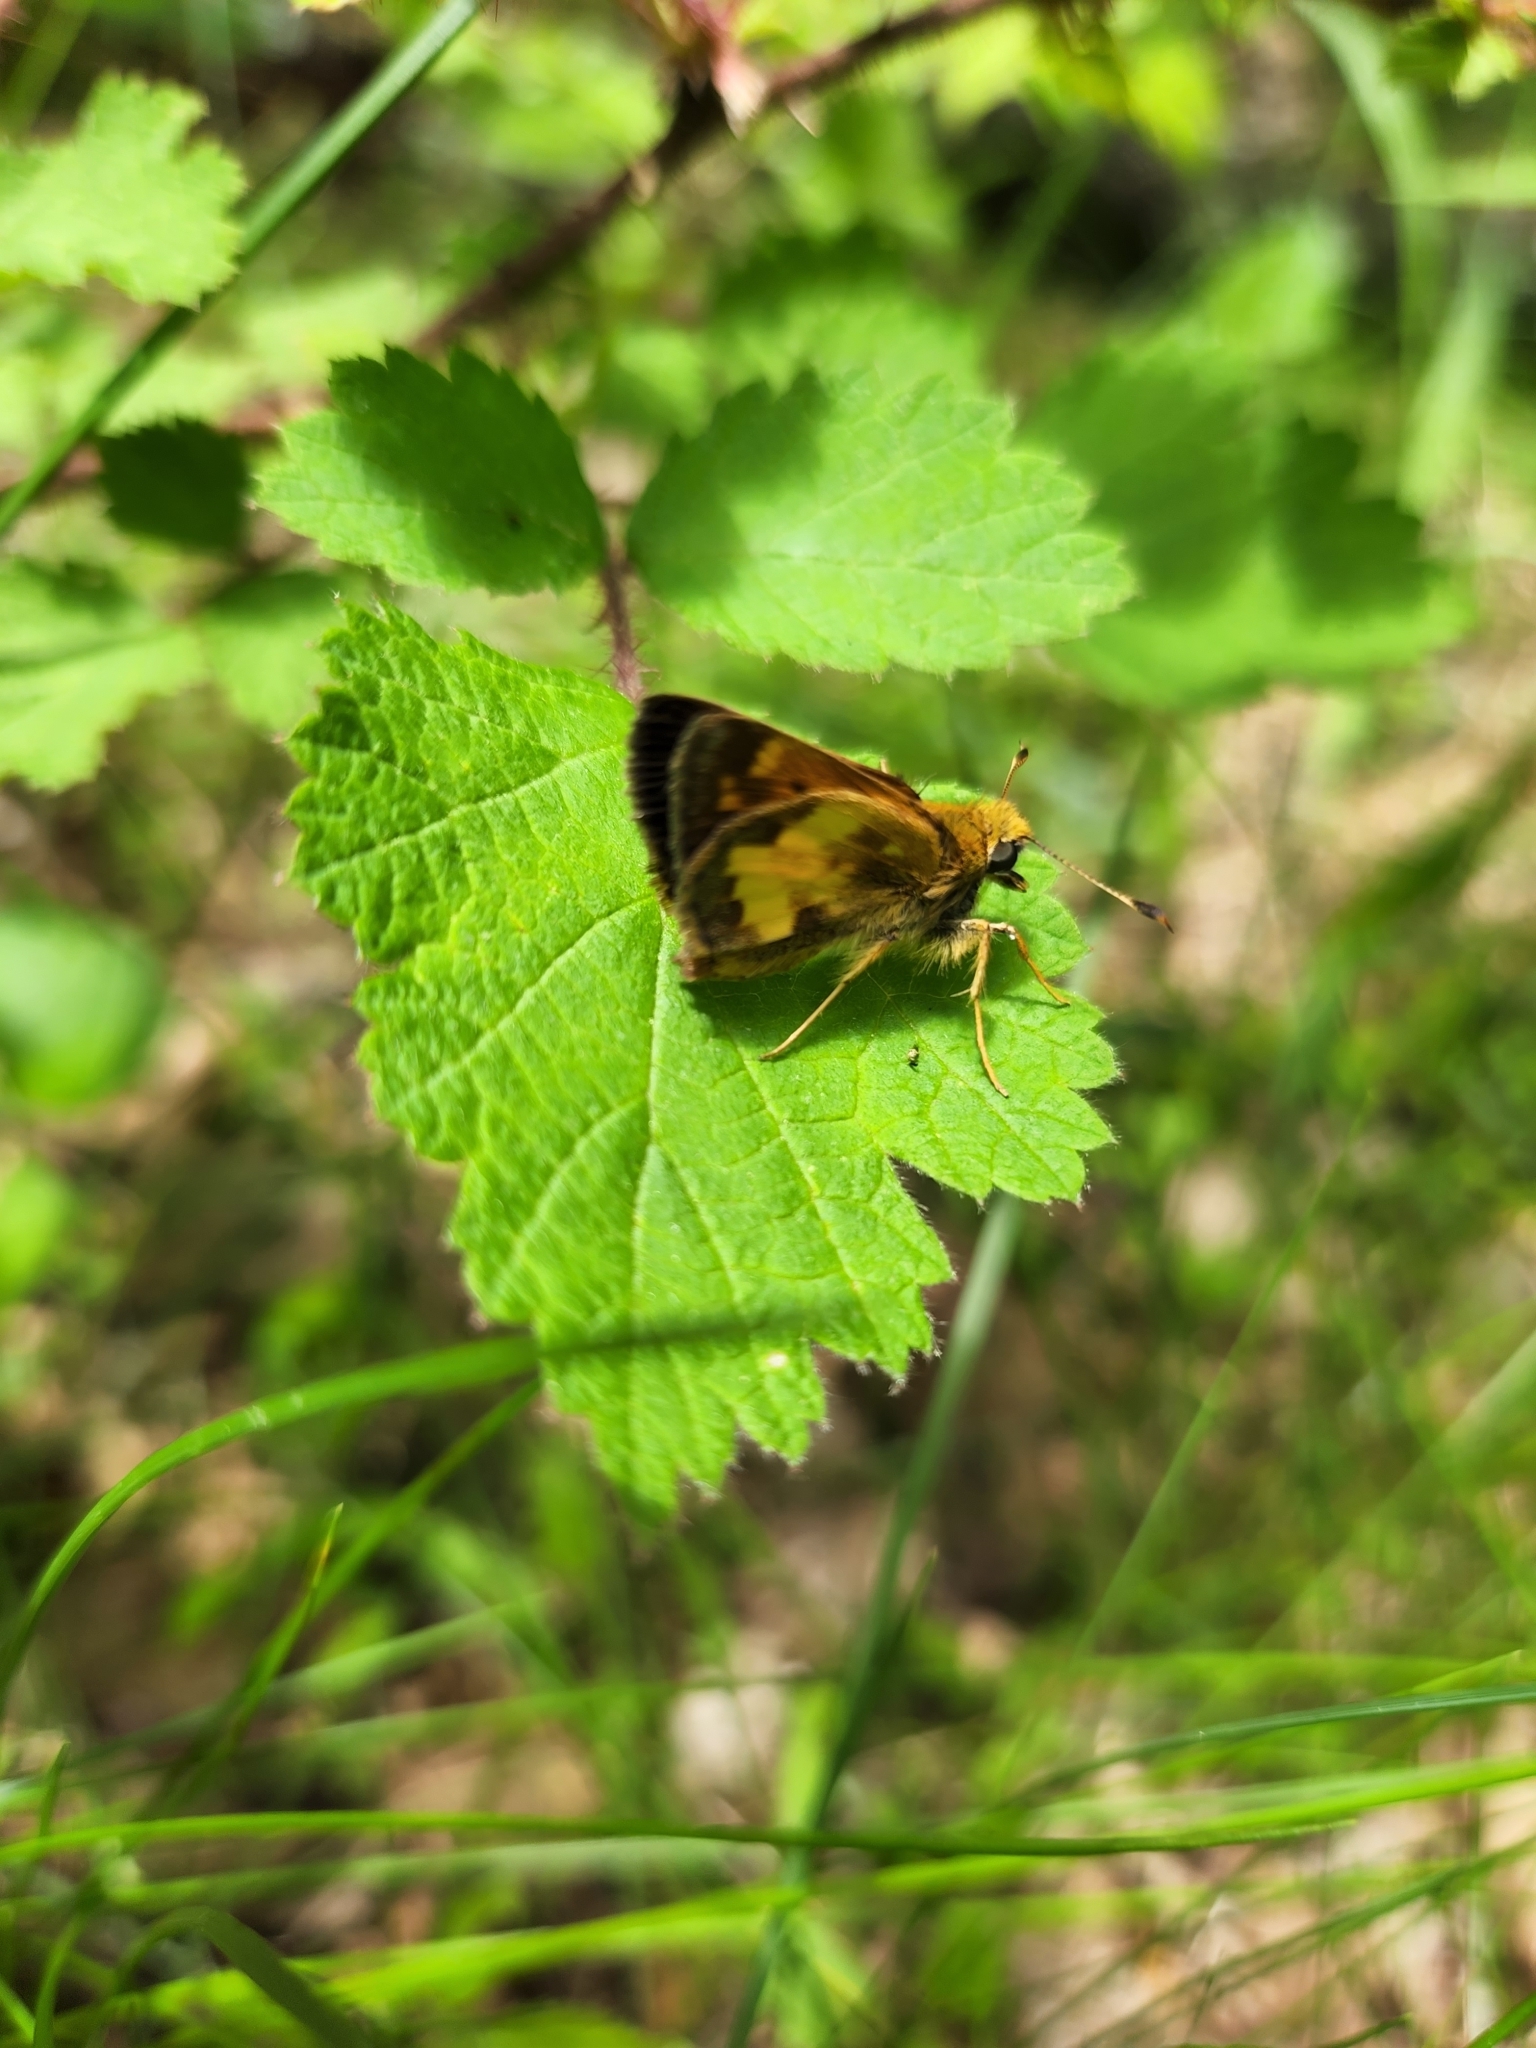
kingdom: Animalia
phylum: Arthropoda
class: Insecta
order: Lepidoptera
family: Hesperiidae
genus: Lon
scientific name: Lon hobomok
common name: Hobomok skipper
